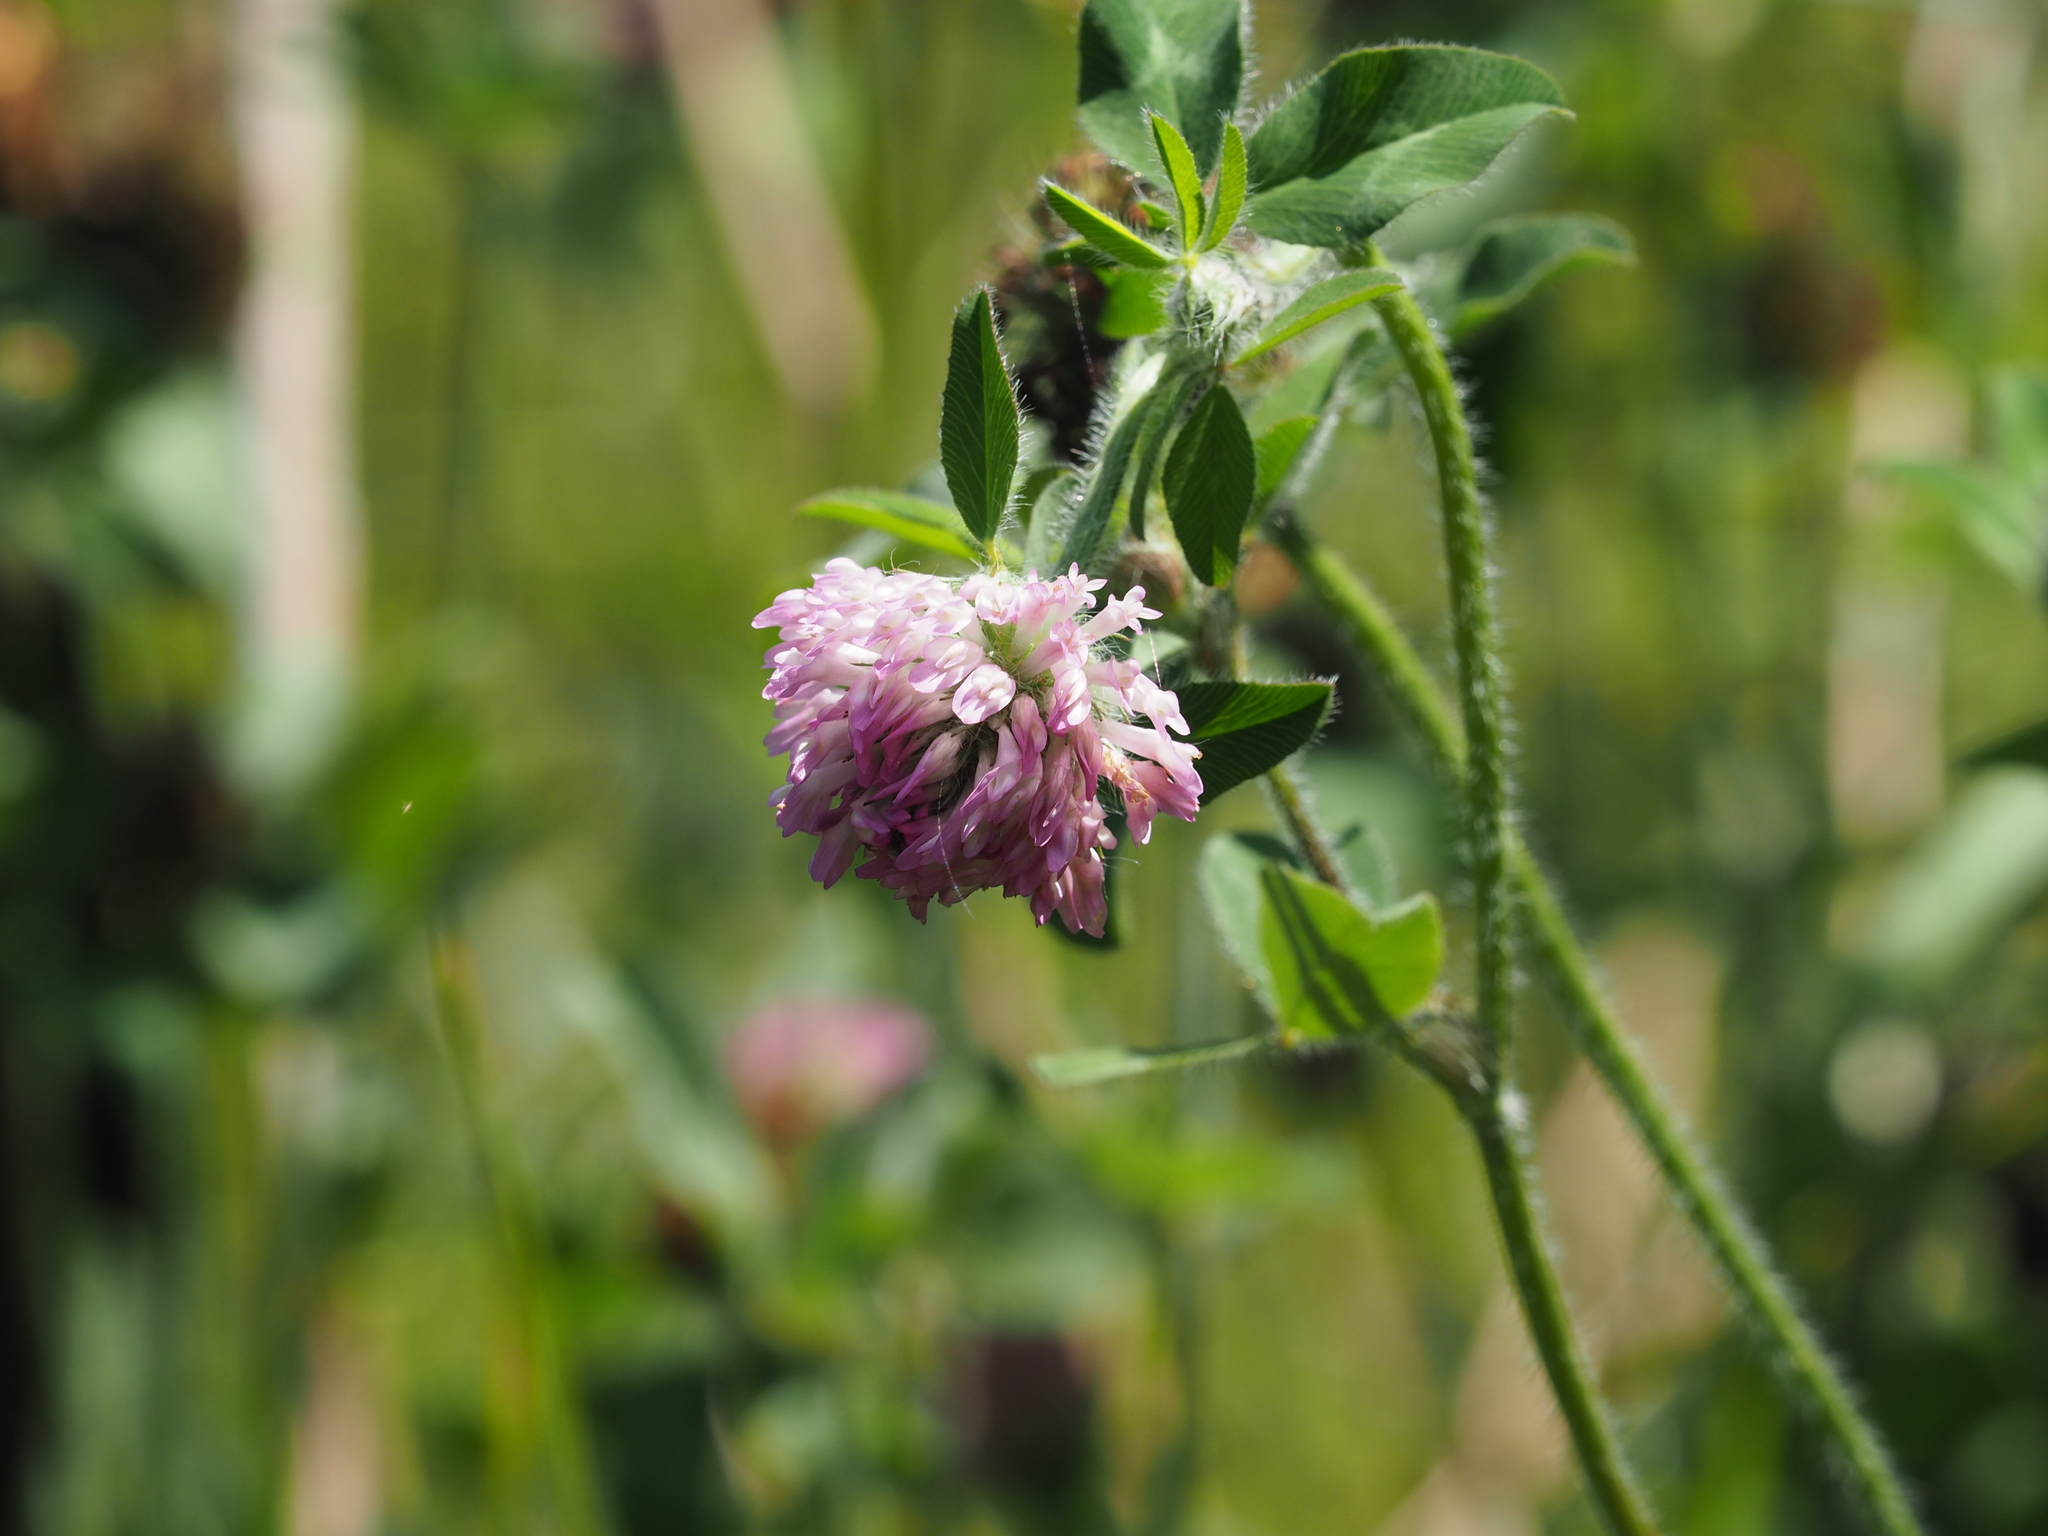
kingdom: Plantae
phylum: Tracheophyta
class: Magnoliopsida
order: Fabales
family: Fabaceae
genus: Trifolium
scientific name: Trifolium pratense
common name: Red clover
